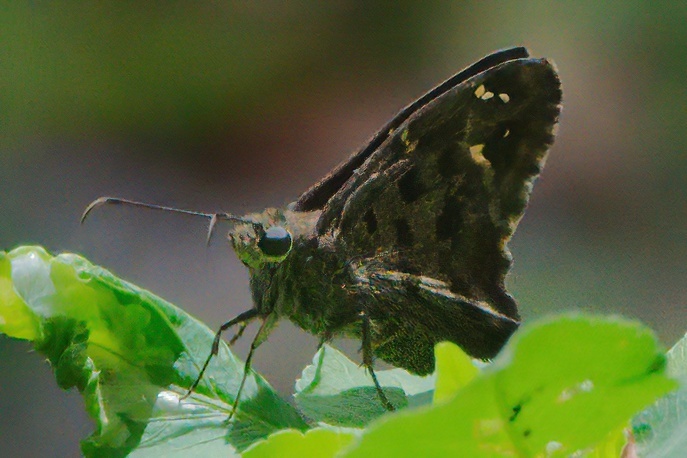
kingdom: Animalia
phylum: Arthropoda
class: Insecta
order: Lepidoptera
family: Hesperiidae
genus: Thorybes
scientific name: Thorybes
